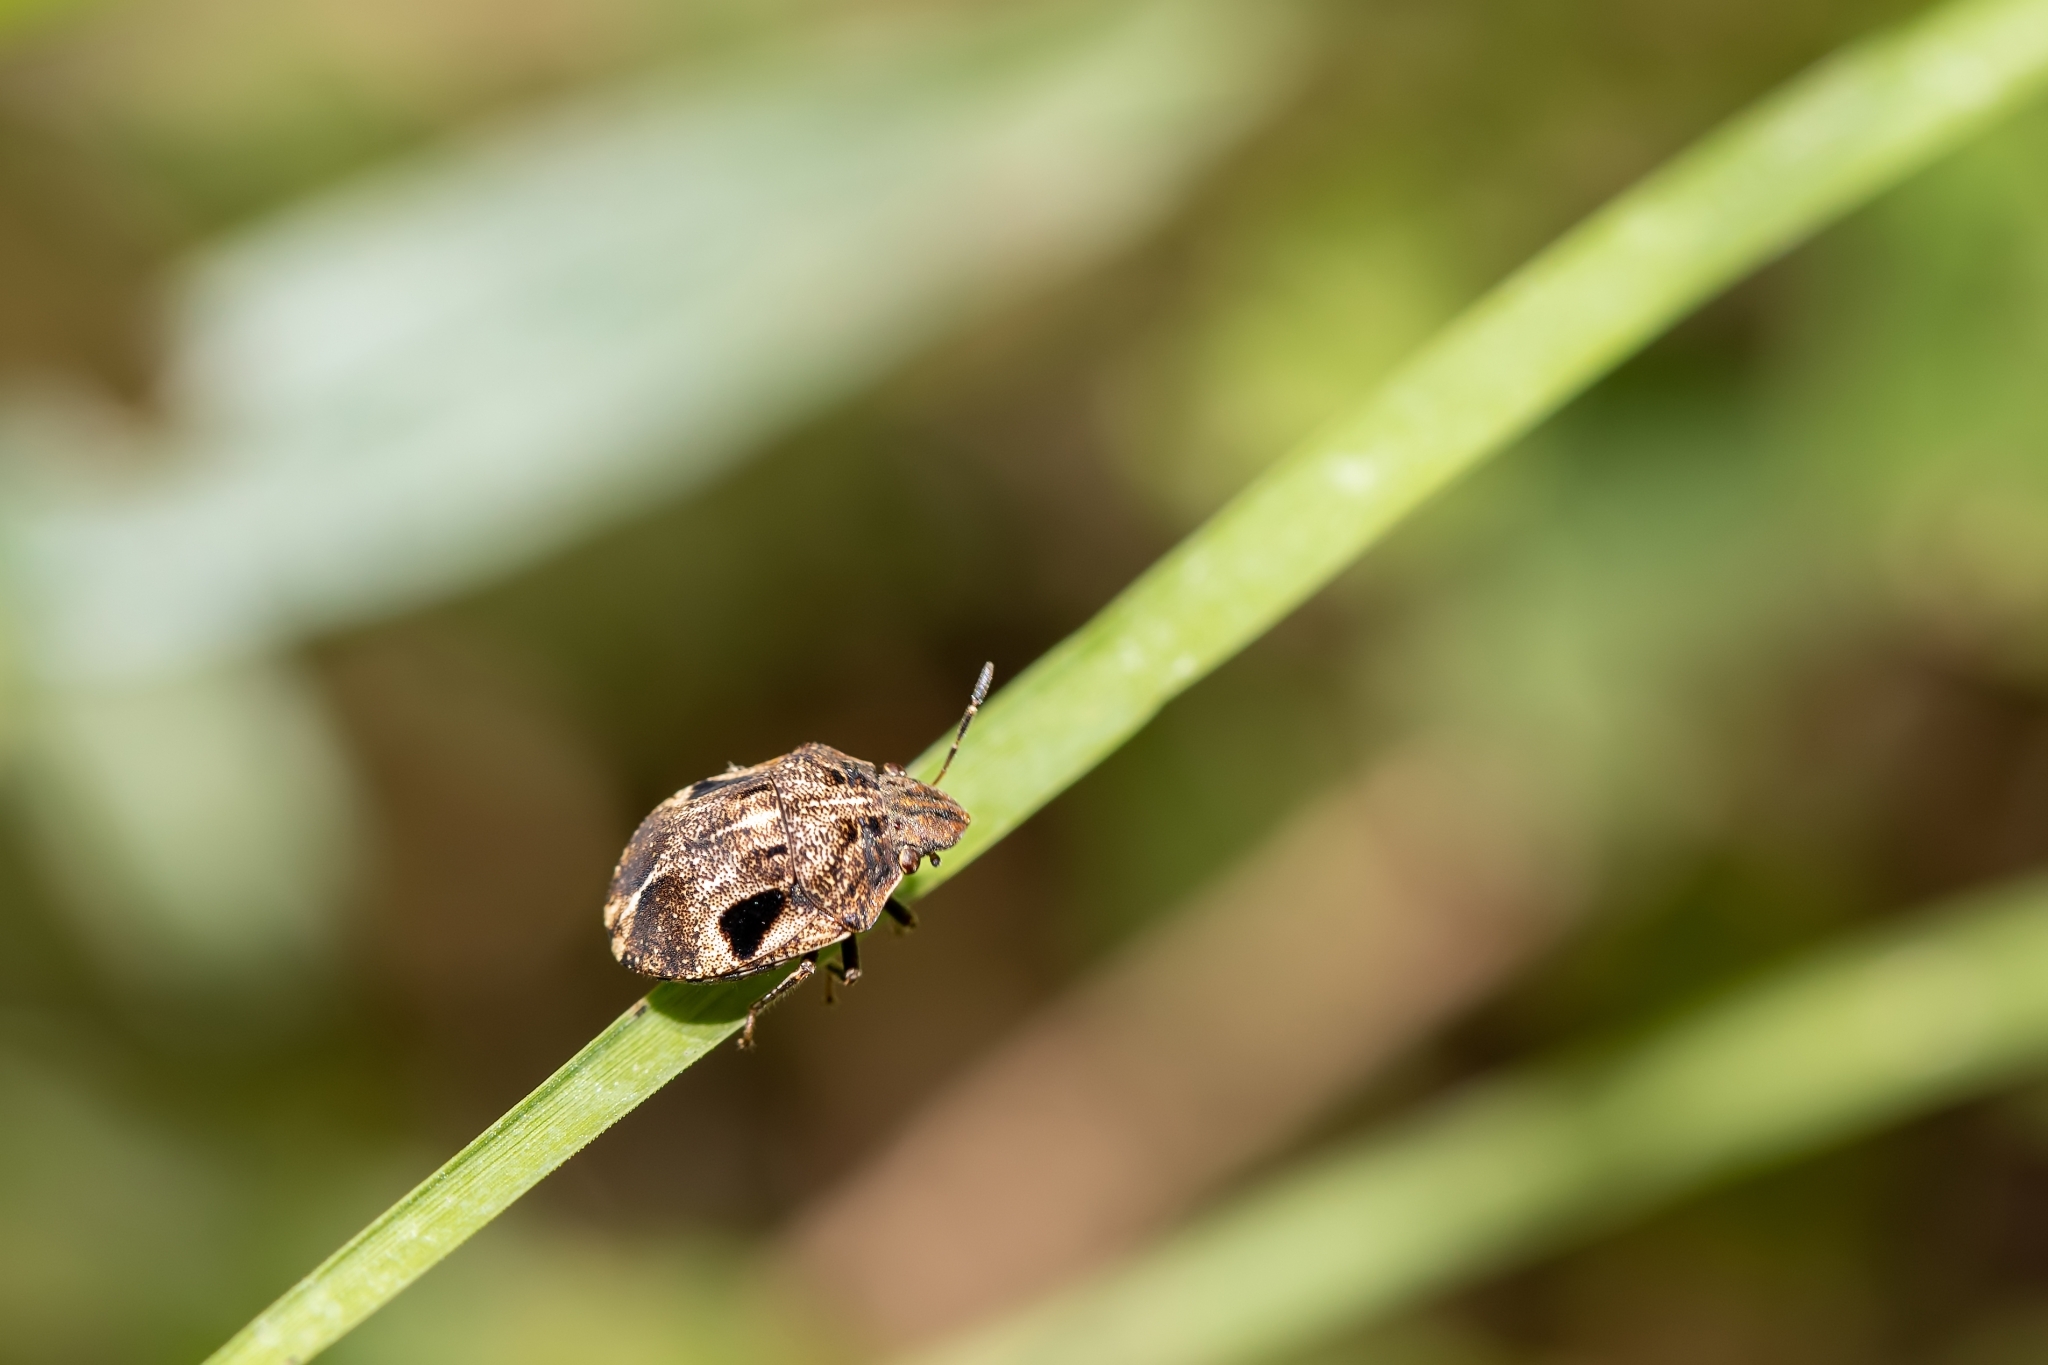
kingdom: Animalia
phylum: Arthropoda
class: Insecta
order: Hemiptera
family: Scutelleridae
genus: Homaemus
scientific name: Homaemus proteus
